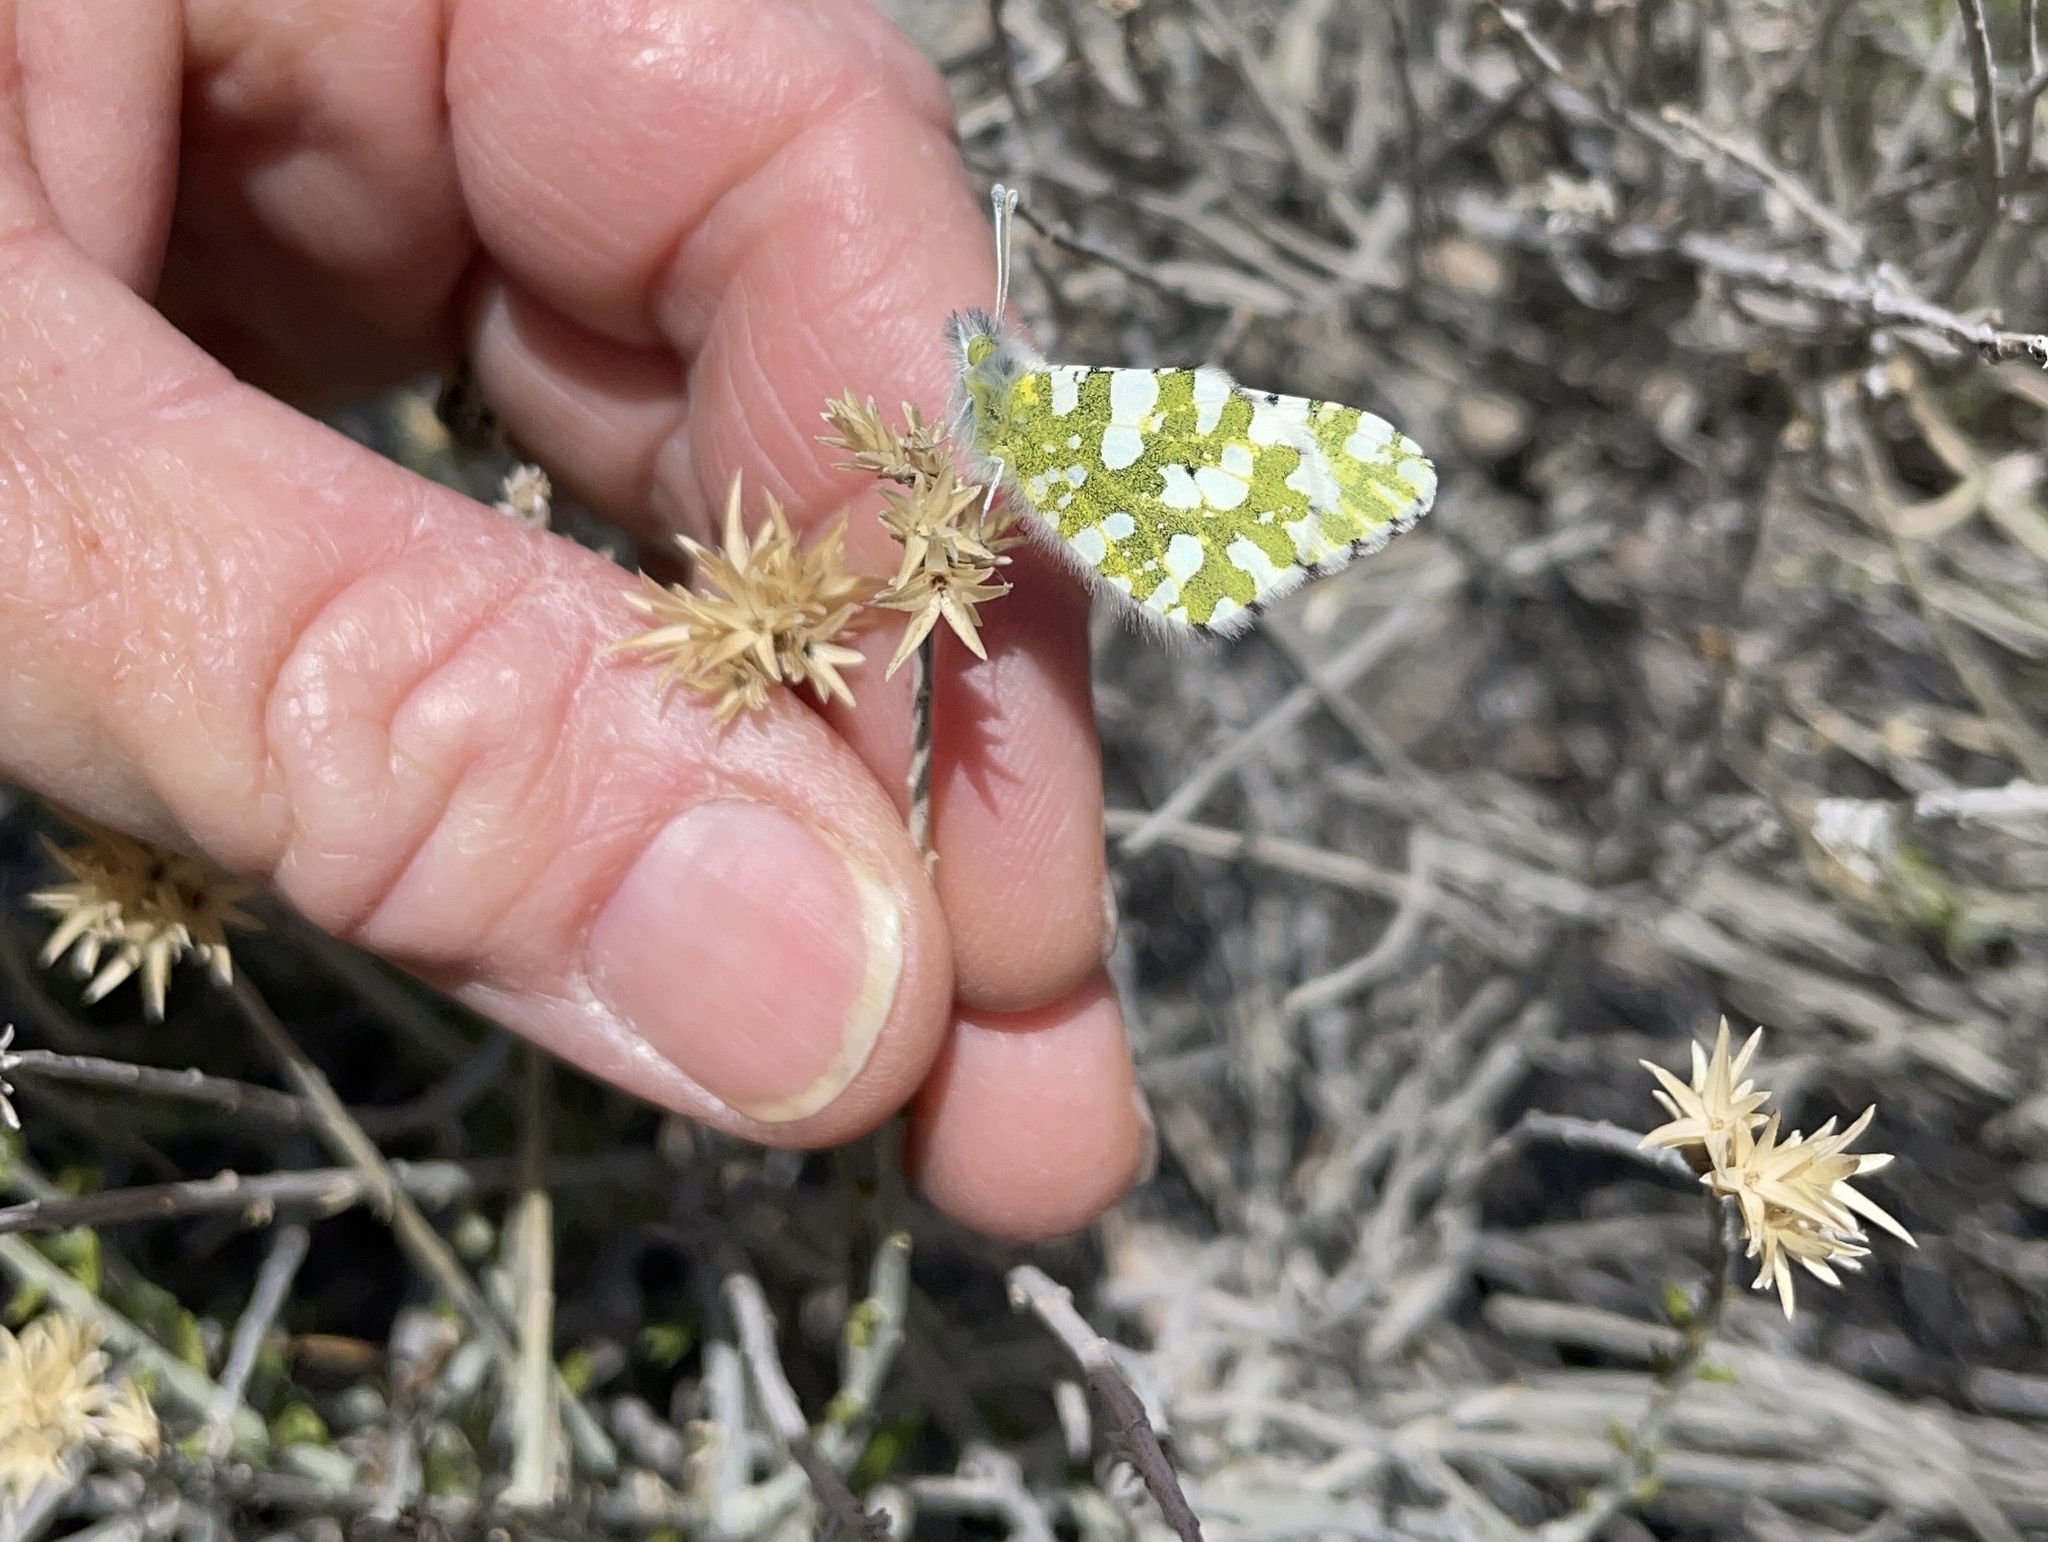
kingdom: Animalia
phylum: Arthropoda
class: Insecta
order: Lepidoptera
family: Pieridae
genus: Euchloe
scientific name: Euchloe lotta
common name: Desert marble
